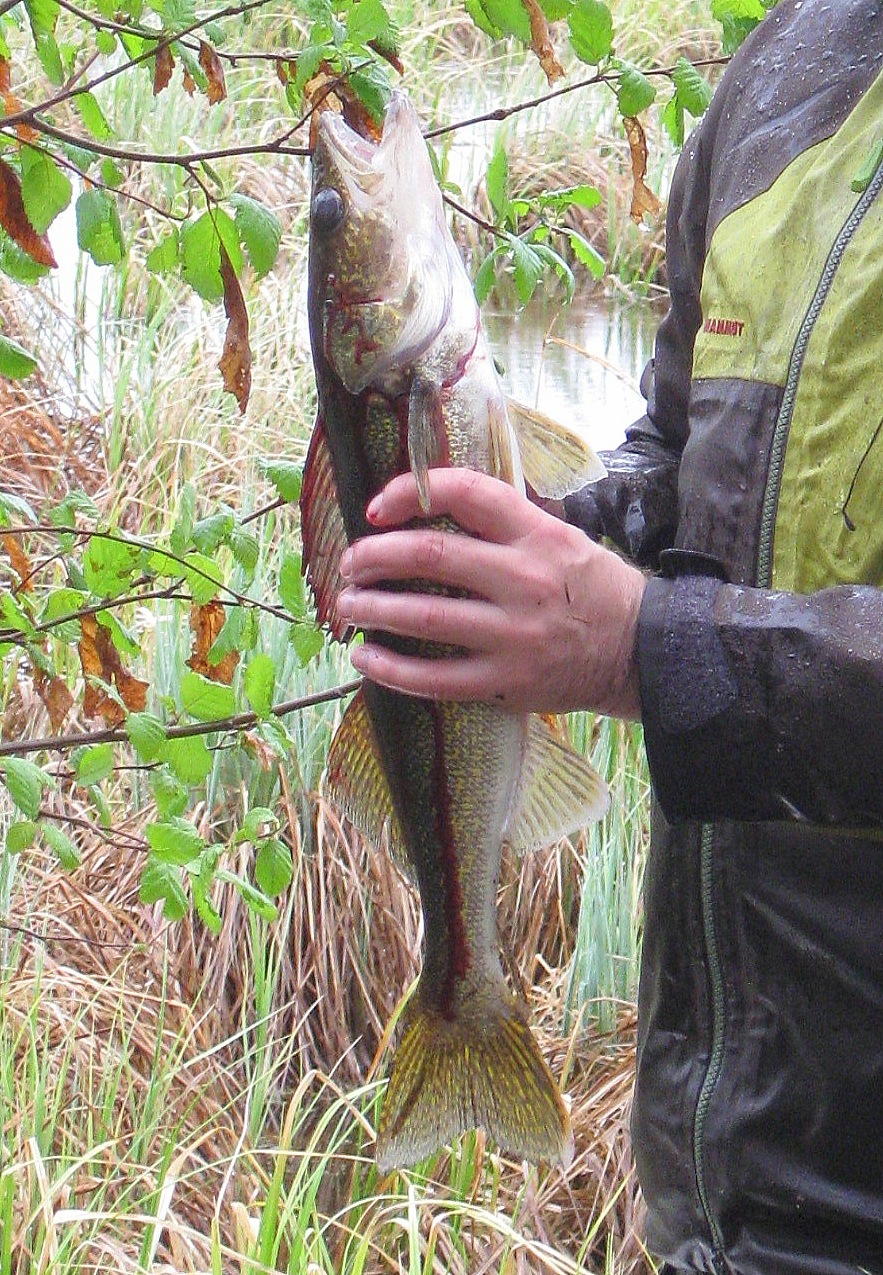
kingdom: Animalia
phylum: Chordata
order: Perciformes
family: Percidae
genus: Sander
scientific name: Sander vitreus
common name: Walleye
